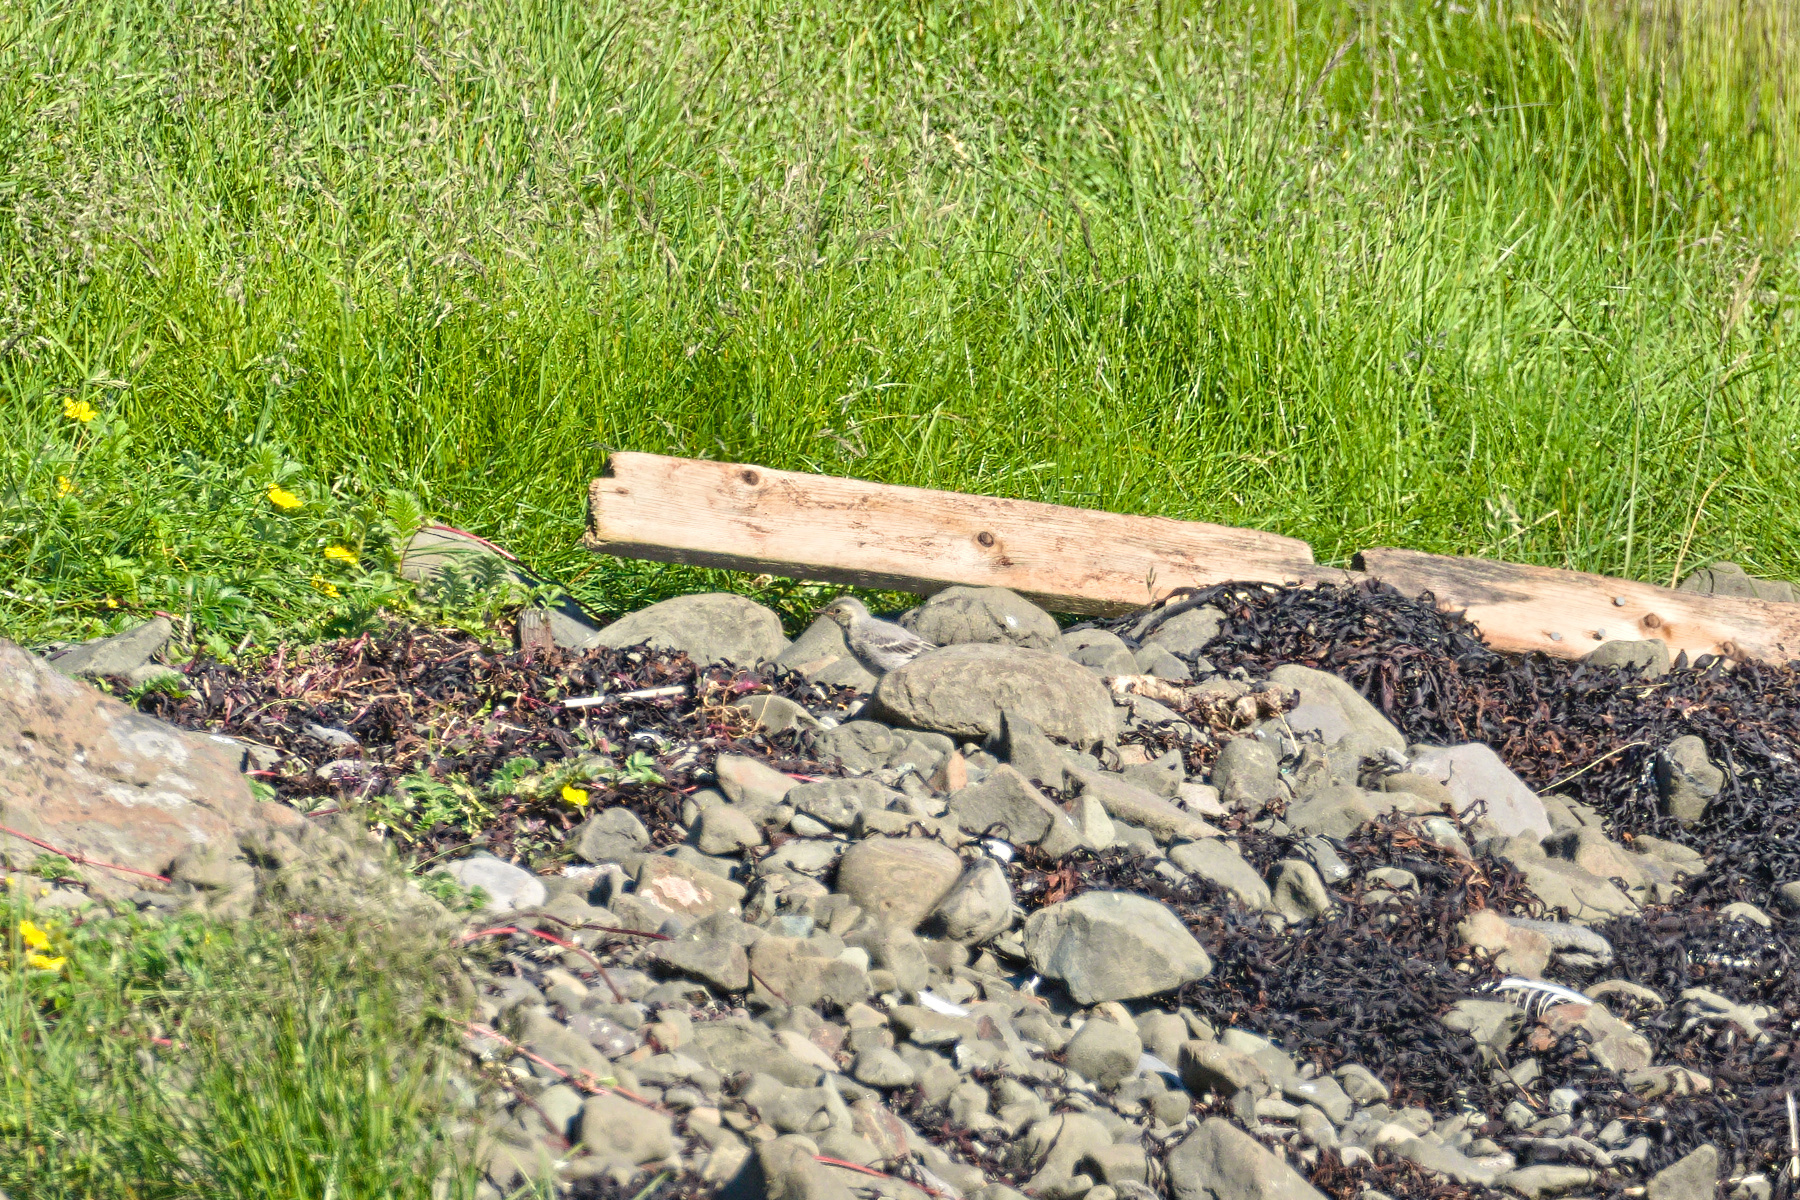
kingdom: Animalia
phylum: Chordata
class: Aves
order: Passeriformes
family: Motacillidae
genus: Motacilla
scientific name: Motacilla alba
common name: White wagtail
